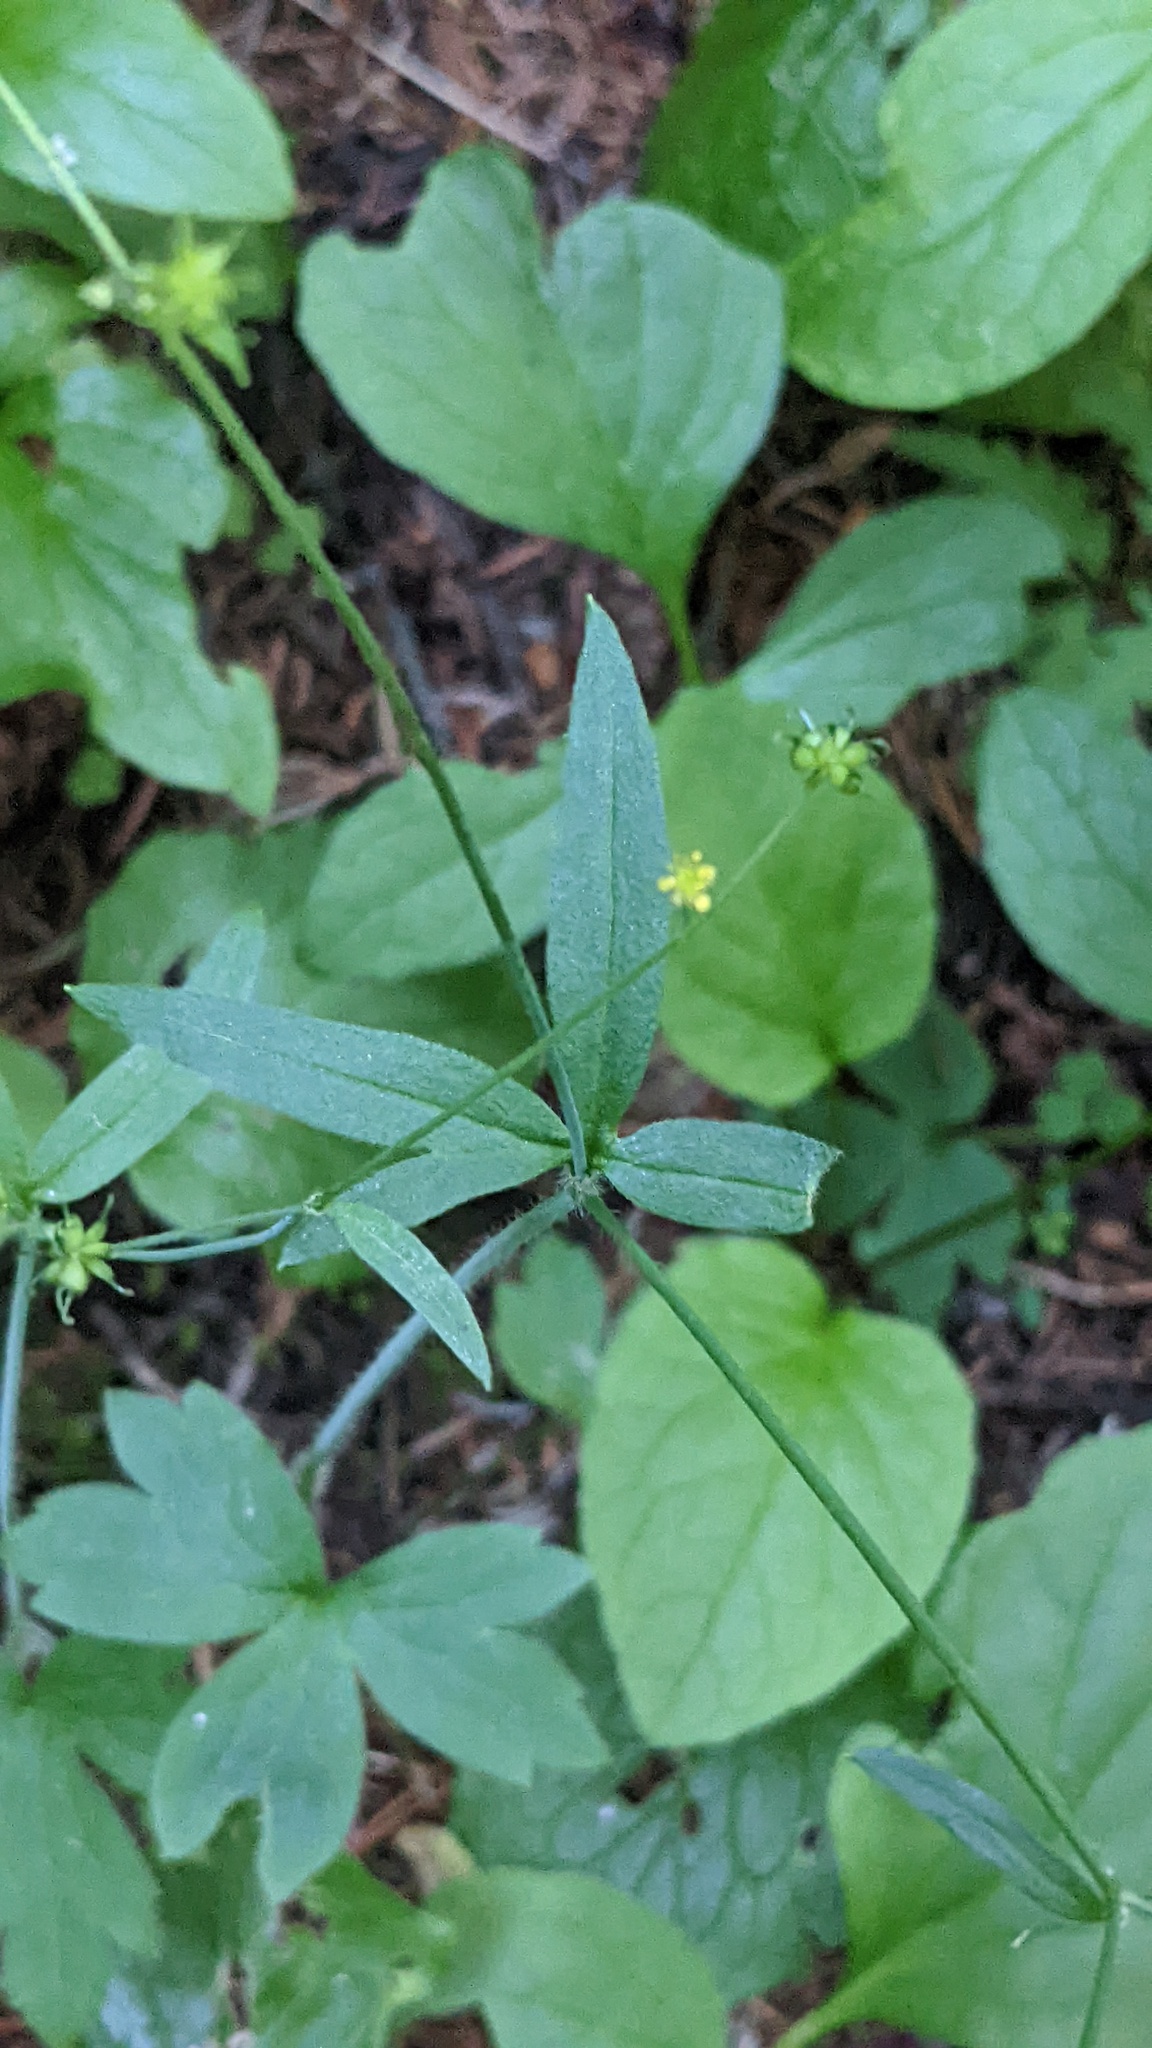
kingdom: Plantae
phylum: Tracheophyta
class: Magnoliopsida
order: Ranunculales
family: Ranunculaceae
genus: Ranunculus
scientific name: Ranunculus uncinatus
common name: Little buttercup
